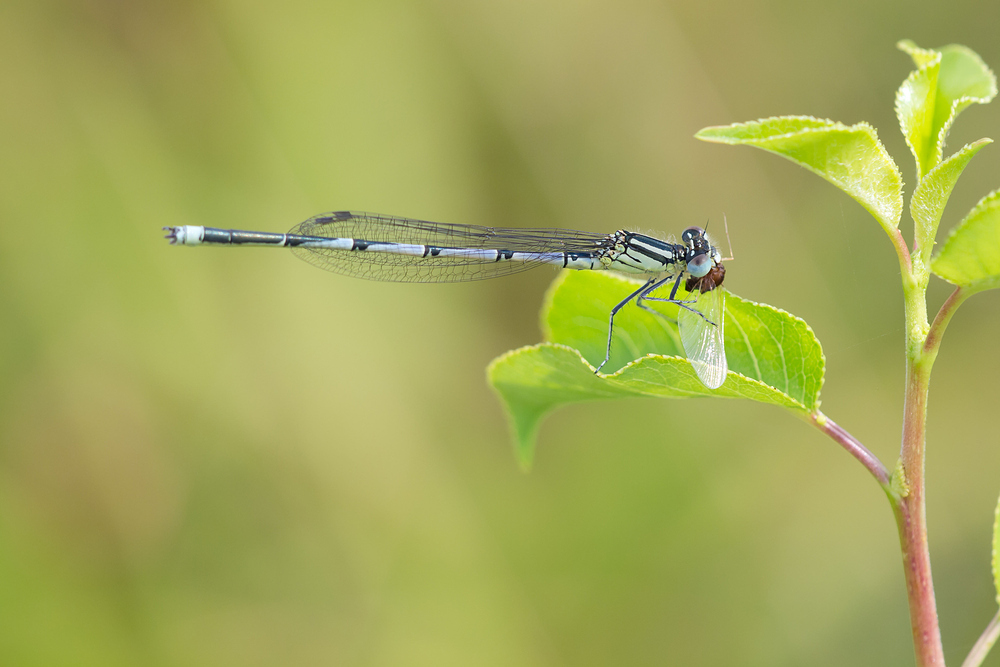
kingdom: Animalia
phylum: Arthropoda
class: Insecta
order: Odonata
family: Coenagrionidae
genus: Erythromma
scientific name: Erythromma lindenii
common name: Blue-eye
